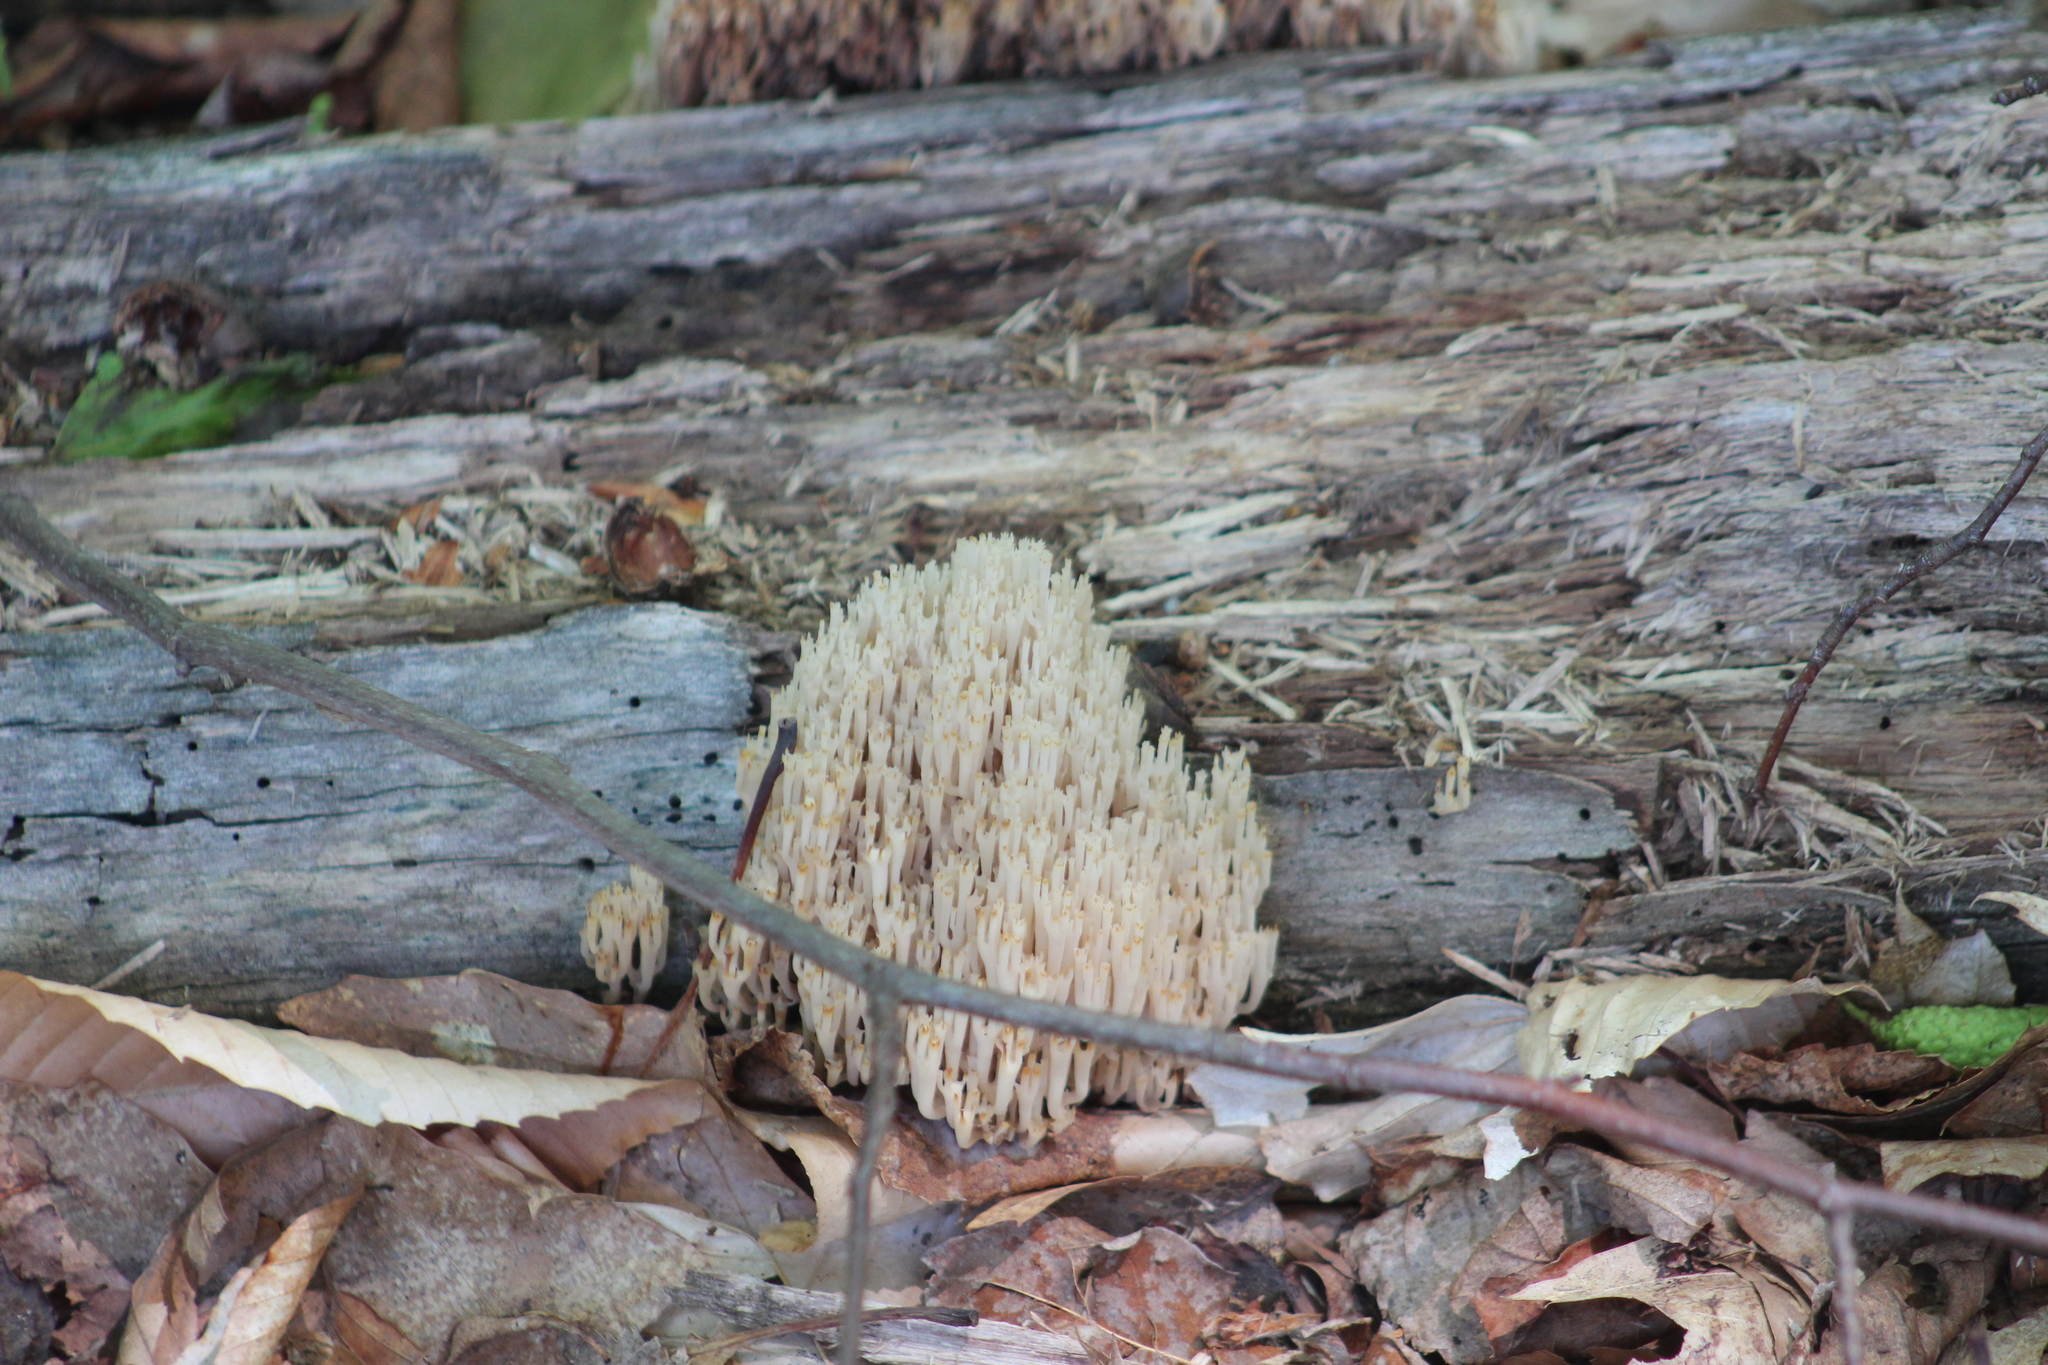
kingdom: Fungi
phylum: Basidiomycota
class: Agaricomycetes
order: Russulales
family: Auriscalpiaceae
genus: Artomyces
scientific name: Artomyces pyxidatus
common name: Crown-tipped coral fungus
